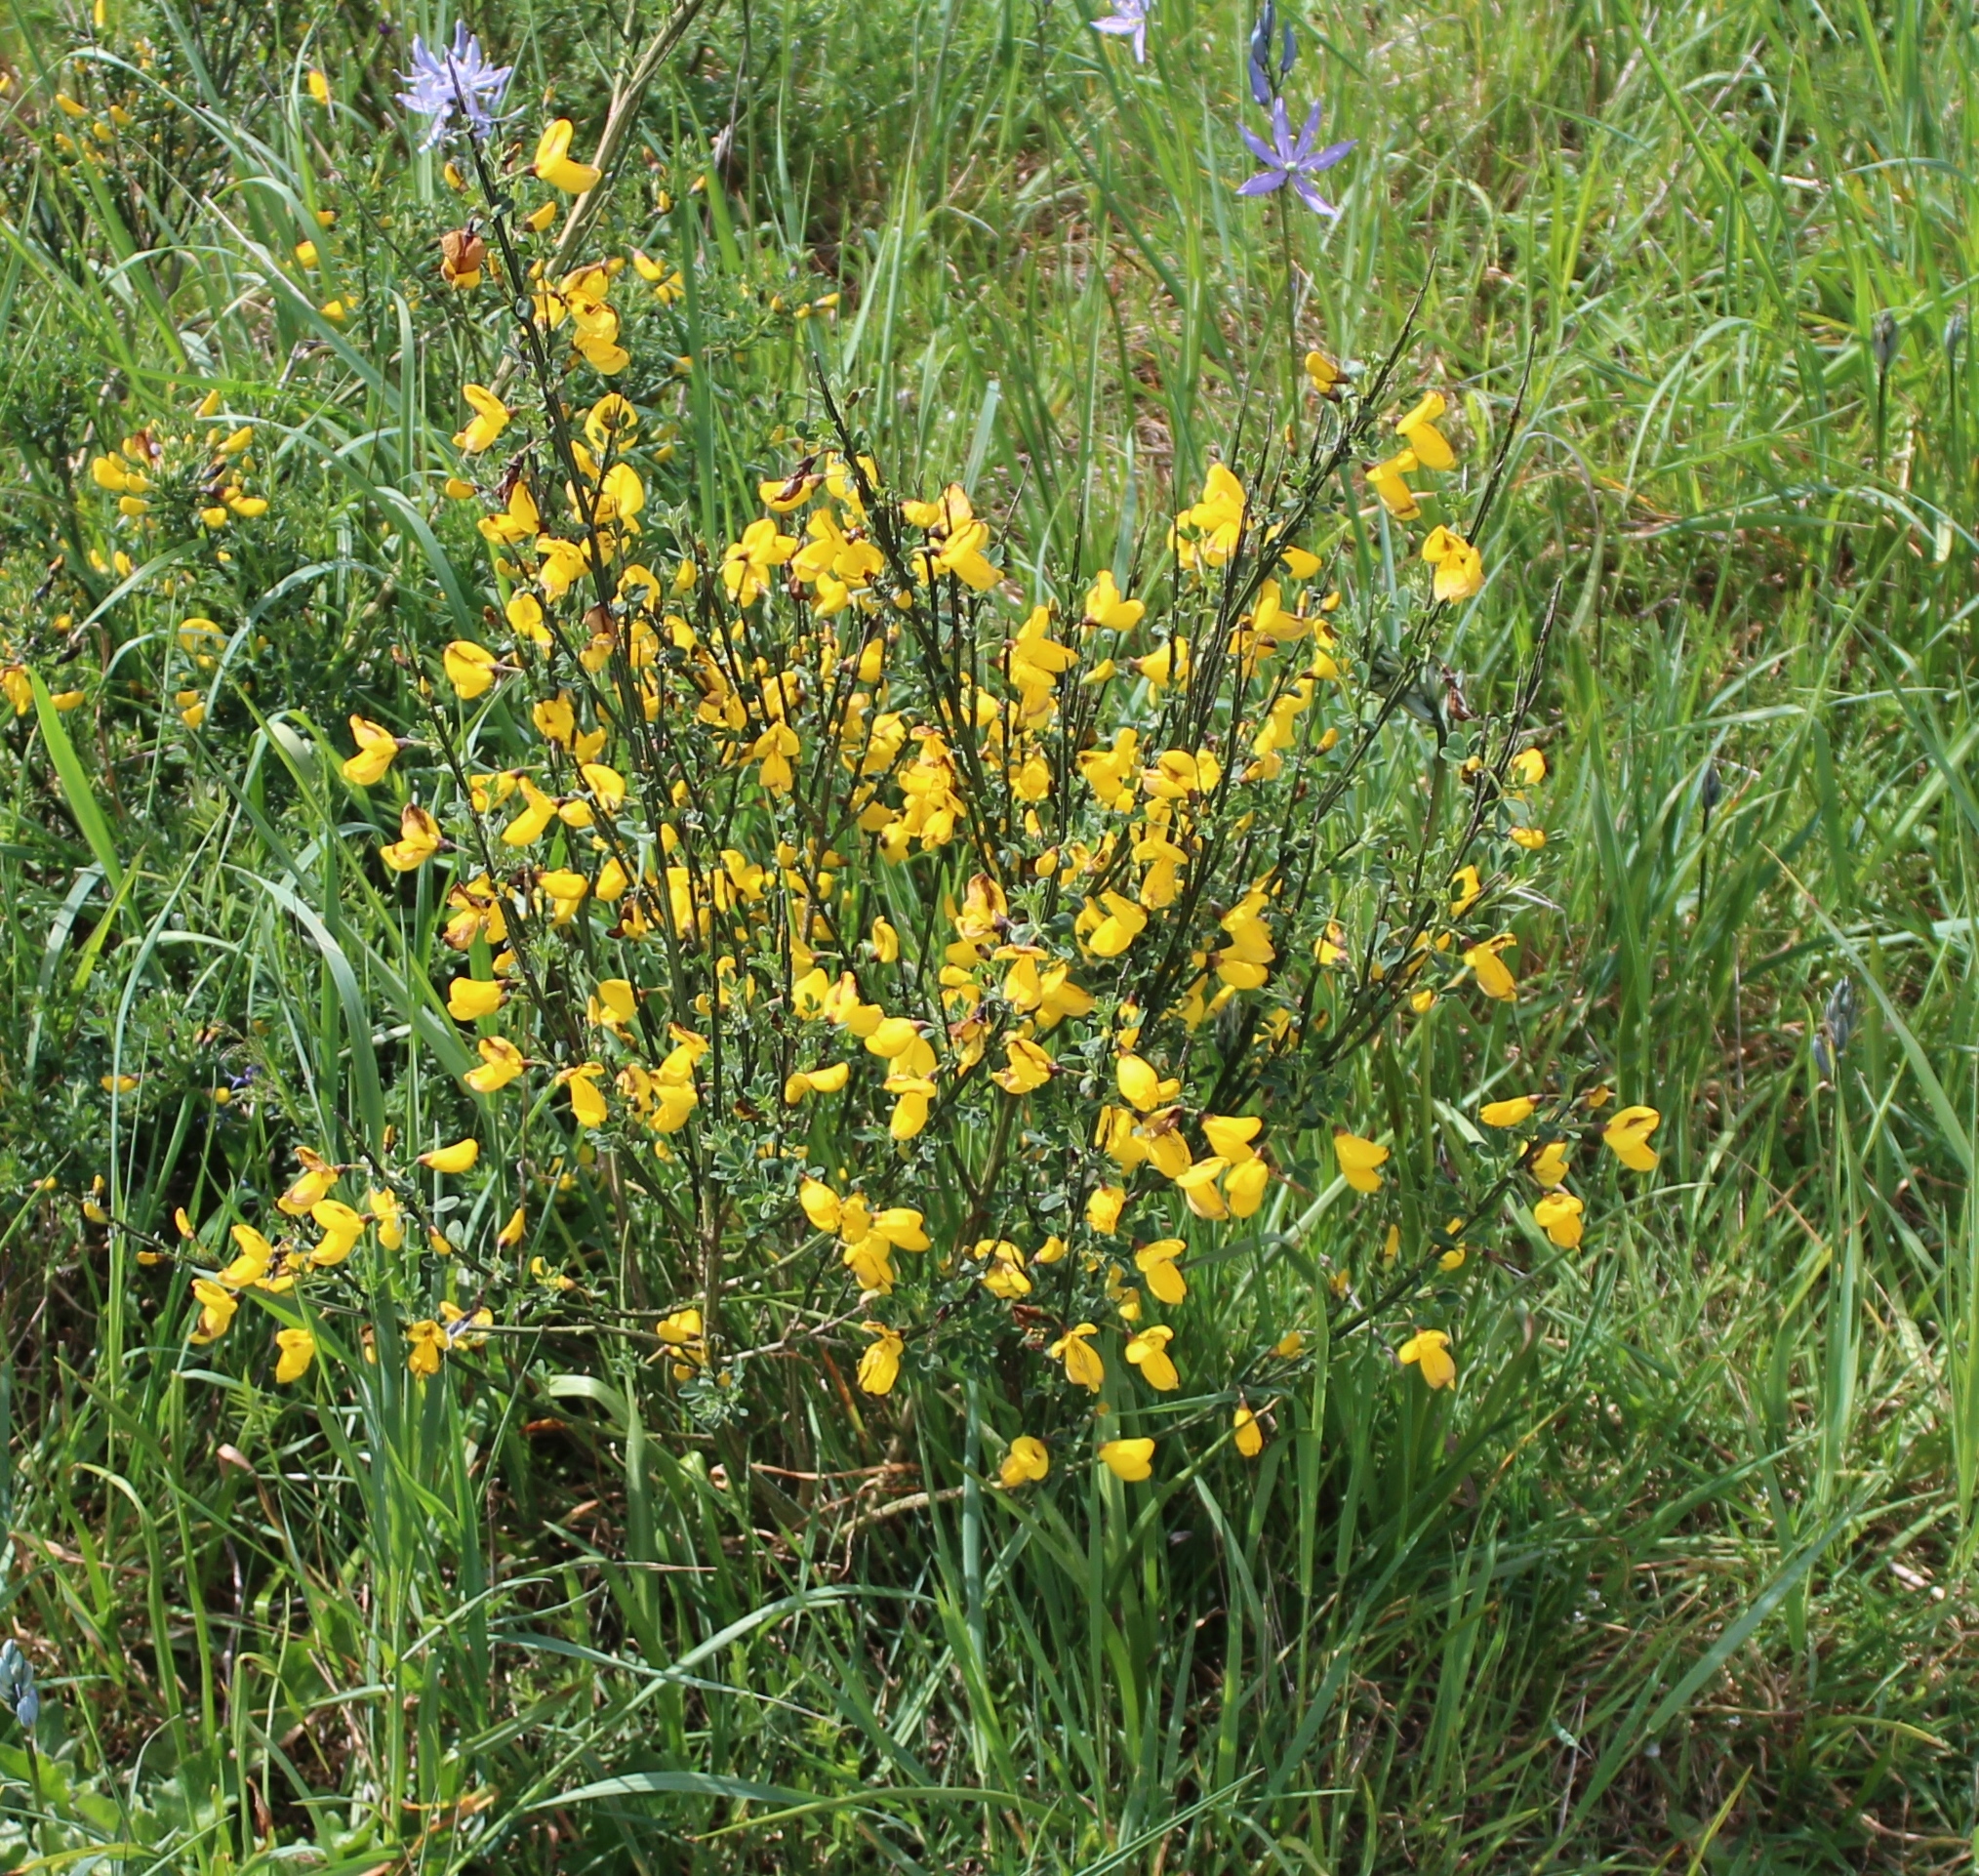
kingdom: Plantae
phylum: Tracheophyta
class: Magnoliopsida
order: Fabales
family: Fabaceae
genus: Cytisus
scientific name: Cytisus scoparius
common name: Scotch broom
